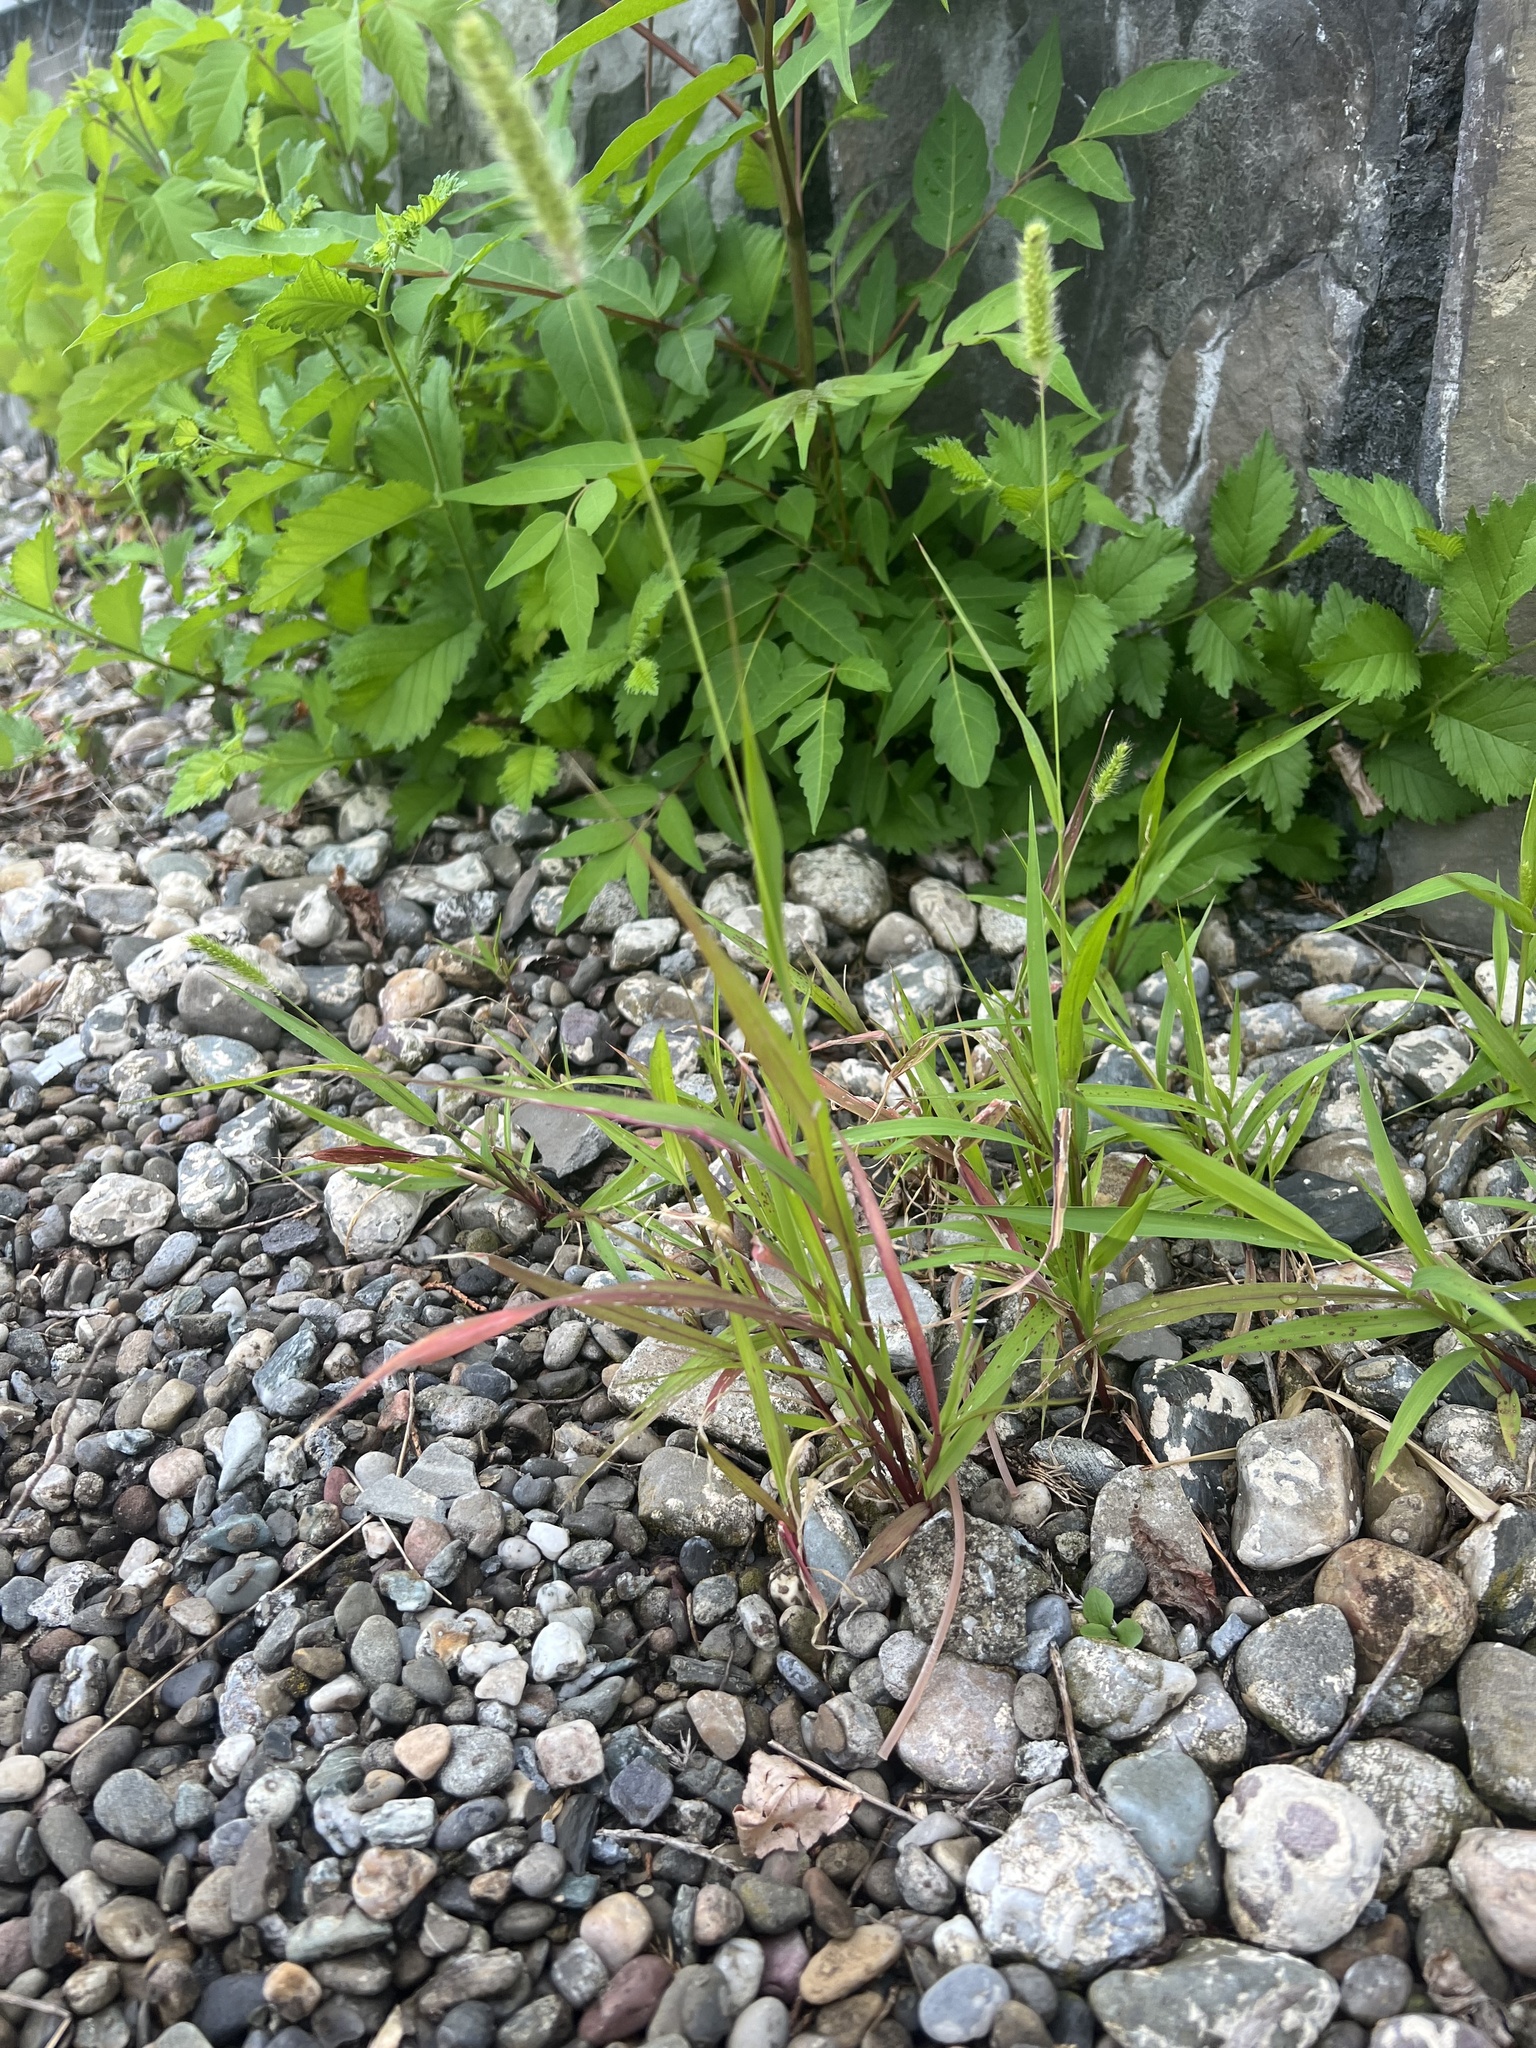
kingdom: Plantae
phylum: Tracheophyta
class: Liliopsida
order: Poales
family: Poaceae
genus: Setaria
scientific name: Setaria viridis
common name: Green bristlegrass
